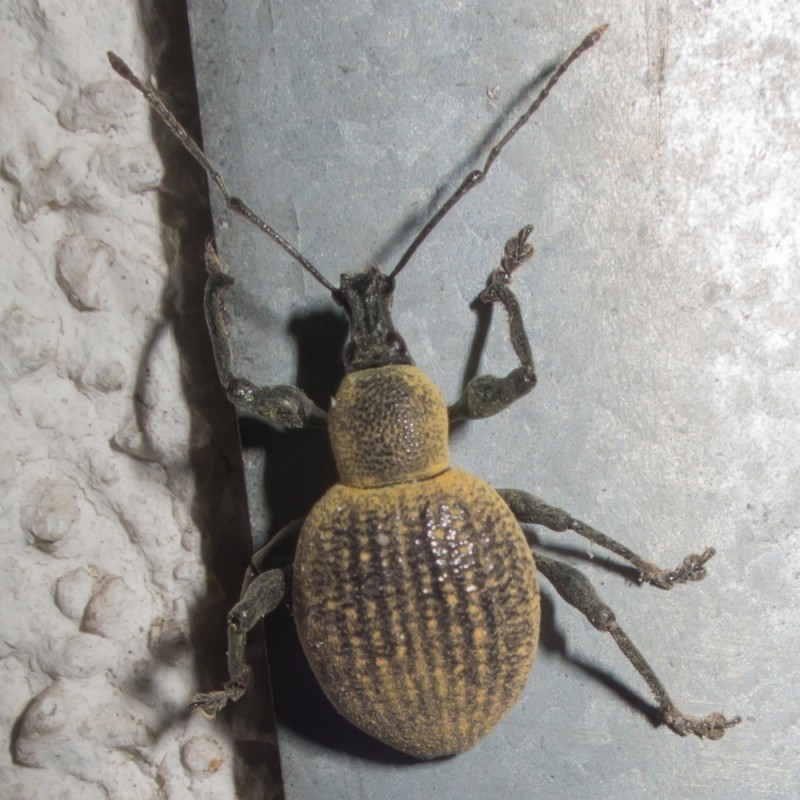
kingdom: Animalia
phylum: Arthropoda
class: Insecta
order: Coleoptera
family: Curculionidae
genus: Otiorhynchus
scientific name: Otiorhynchus pseudonothus
